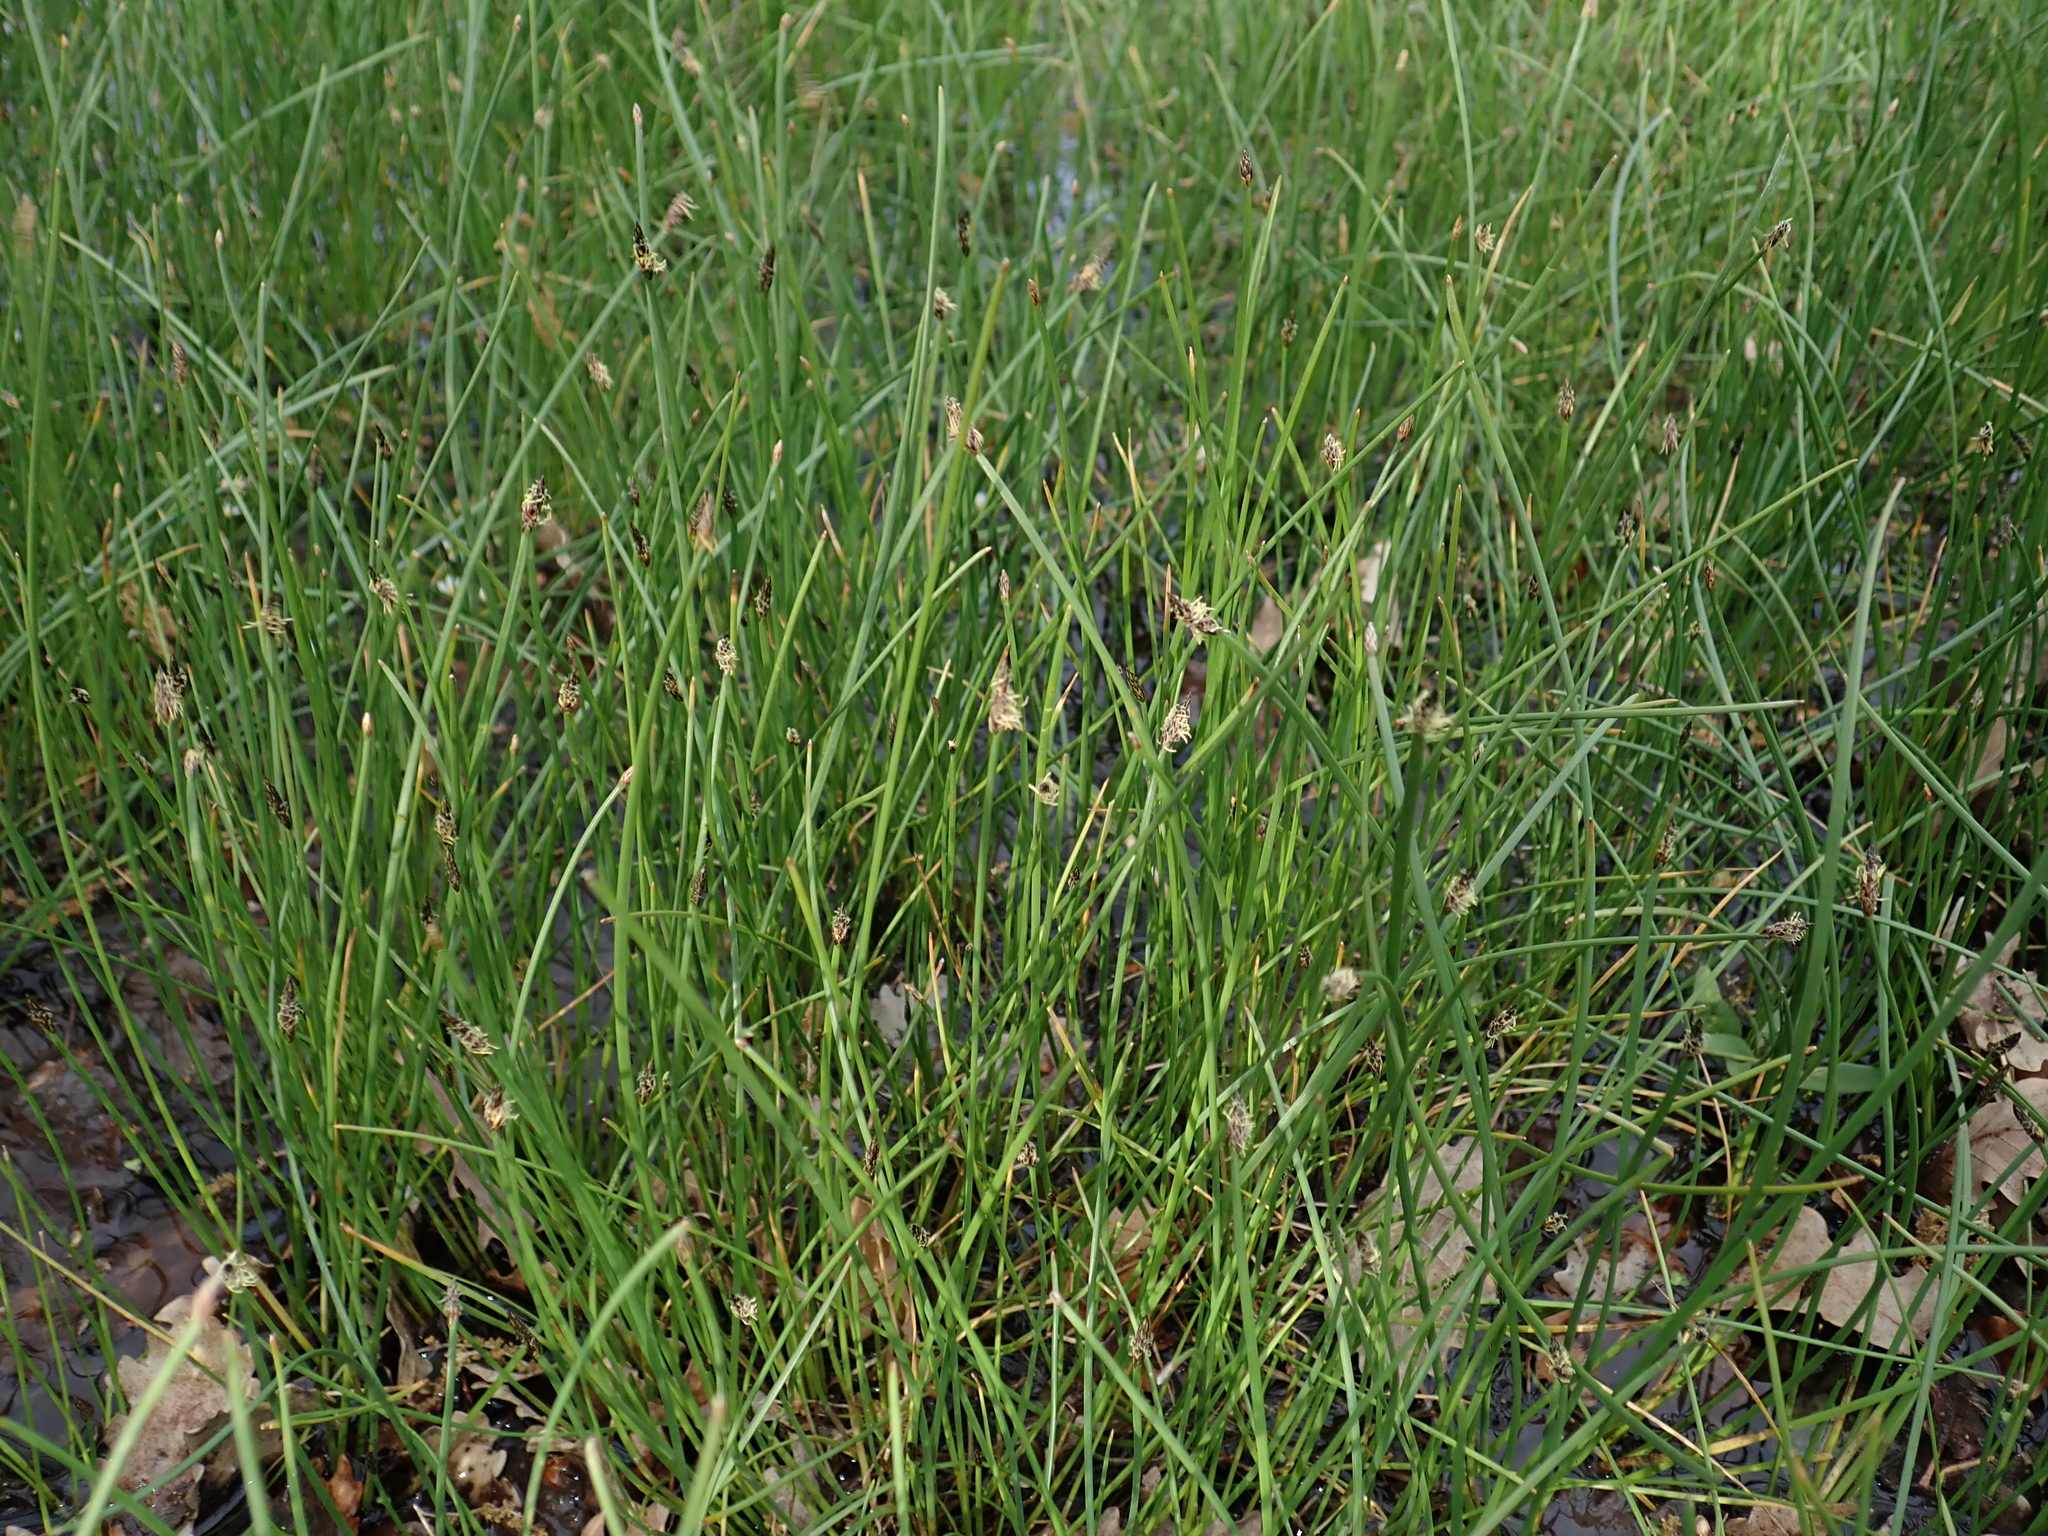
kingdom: Plantae
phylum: Tracheophyta
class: Liliopsida
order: Poales
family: Cyperaceae
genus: Eleocharis
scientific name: Eleocharis palustris
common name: Common spike-rush
